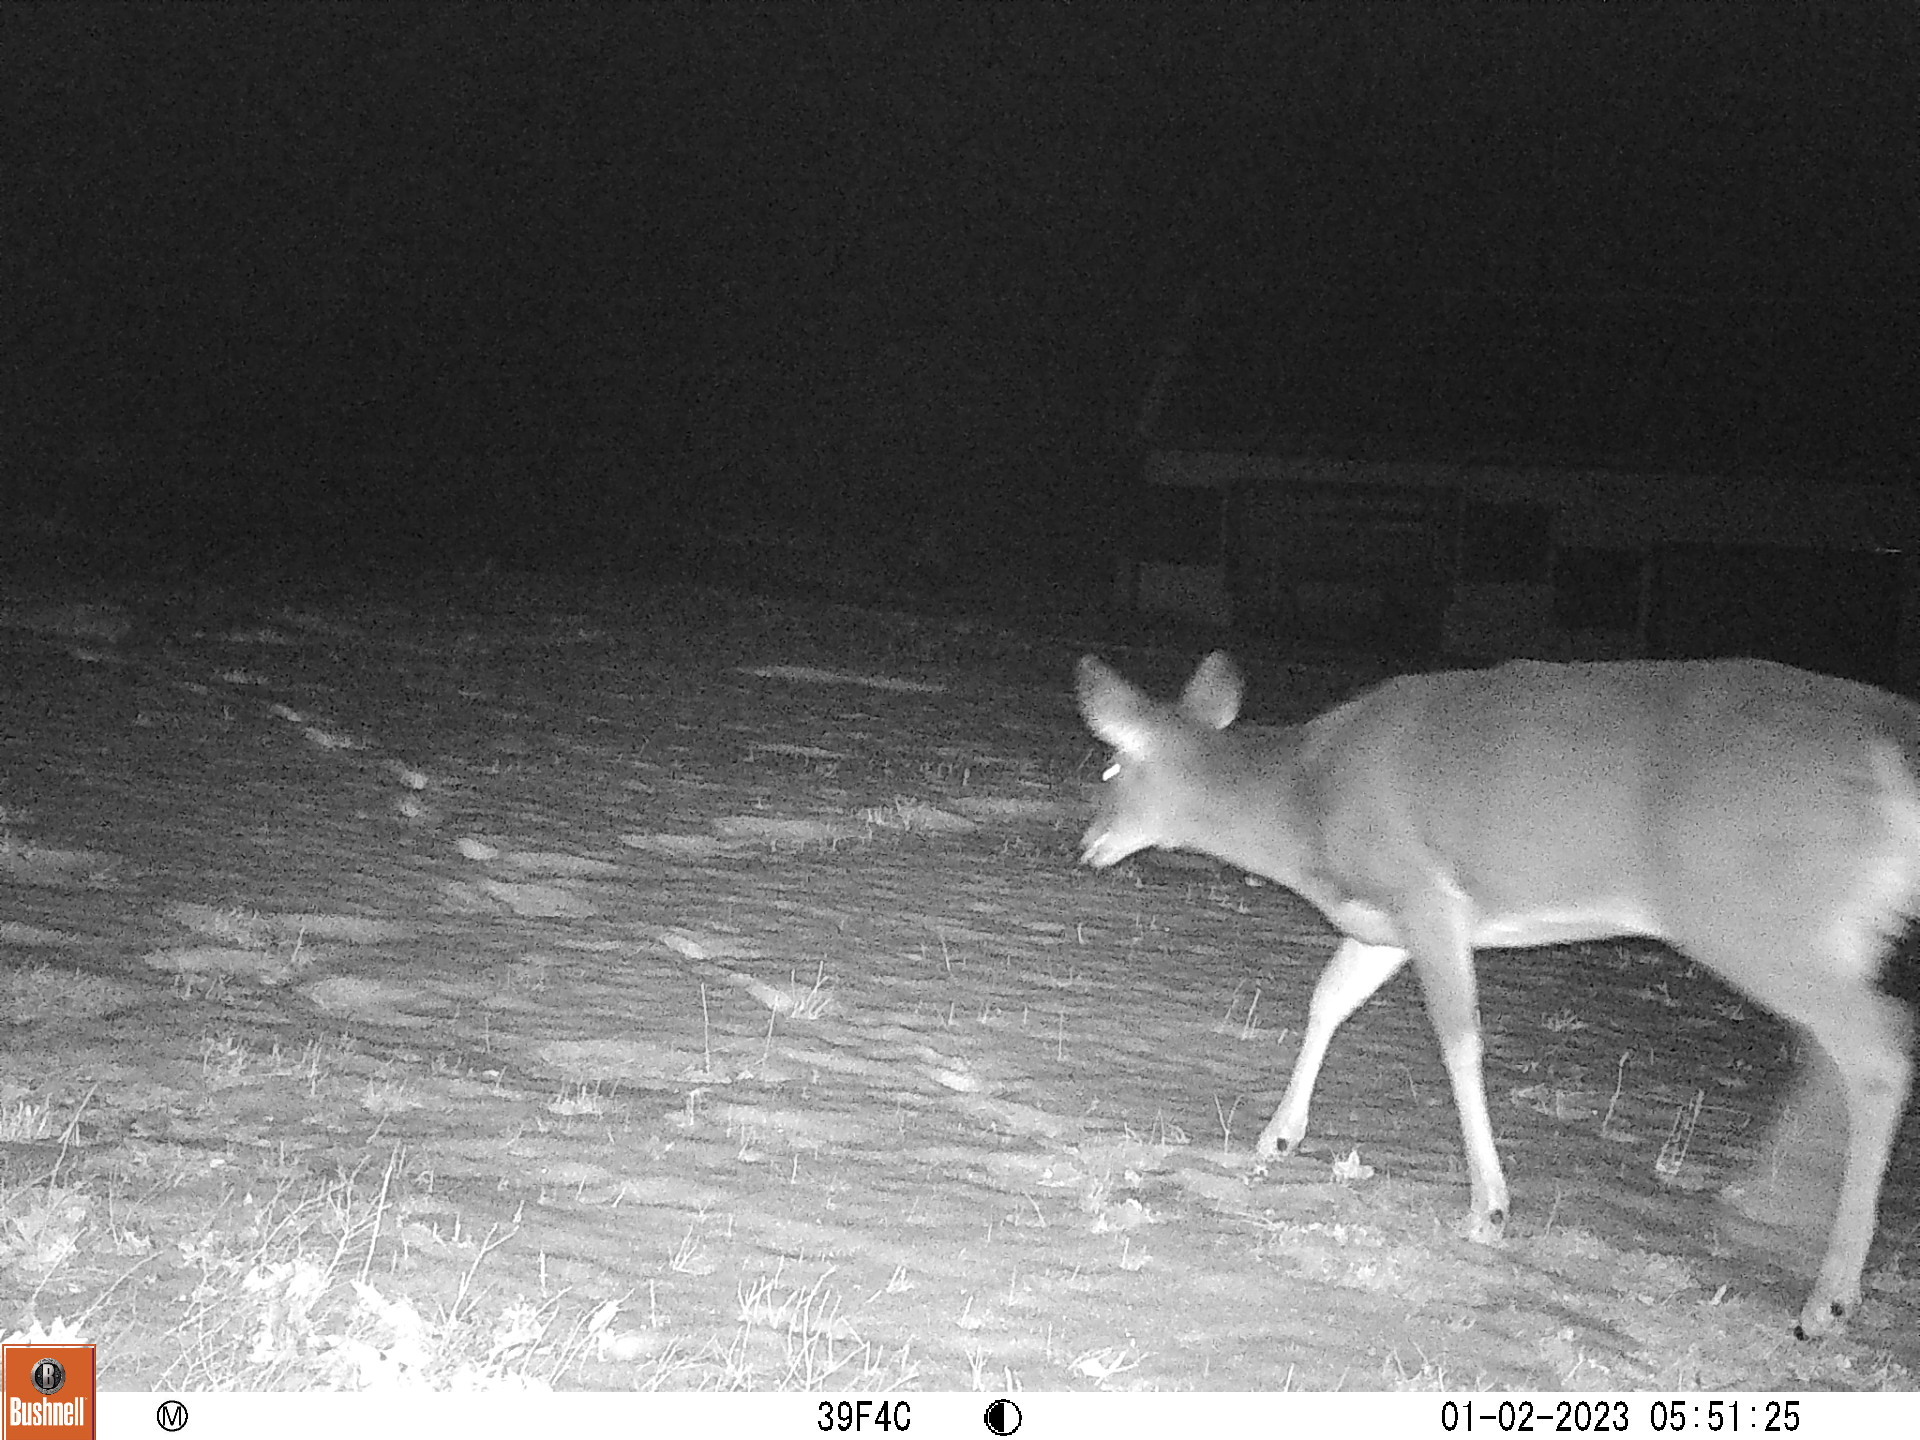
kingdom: Animalia
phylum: Chordata
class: Mammalia
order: Artiodactyla
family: Cervidae
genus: Odocoileus
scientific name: Odocoileus virginianus
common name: White-tailed deer
